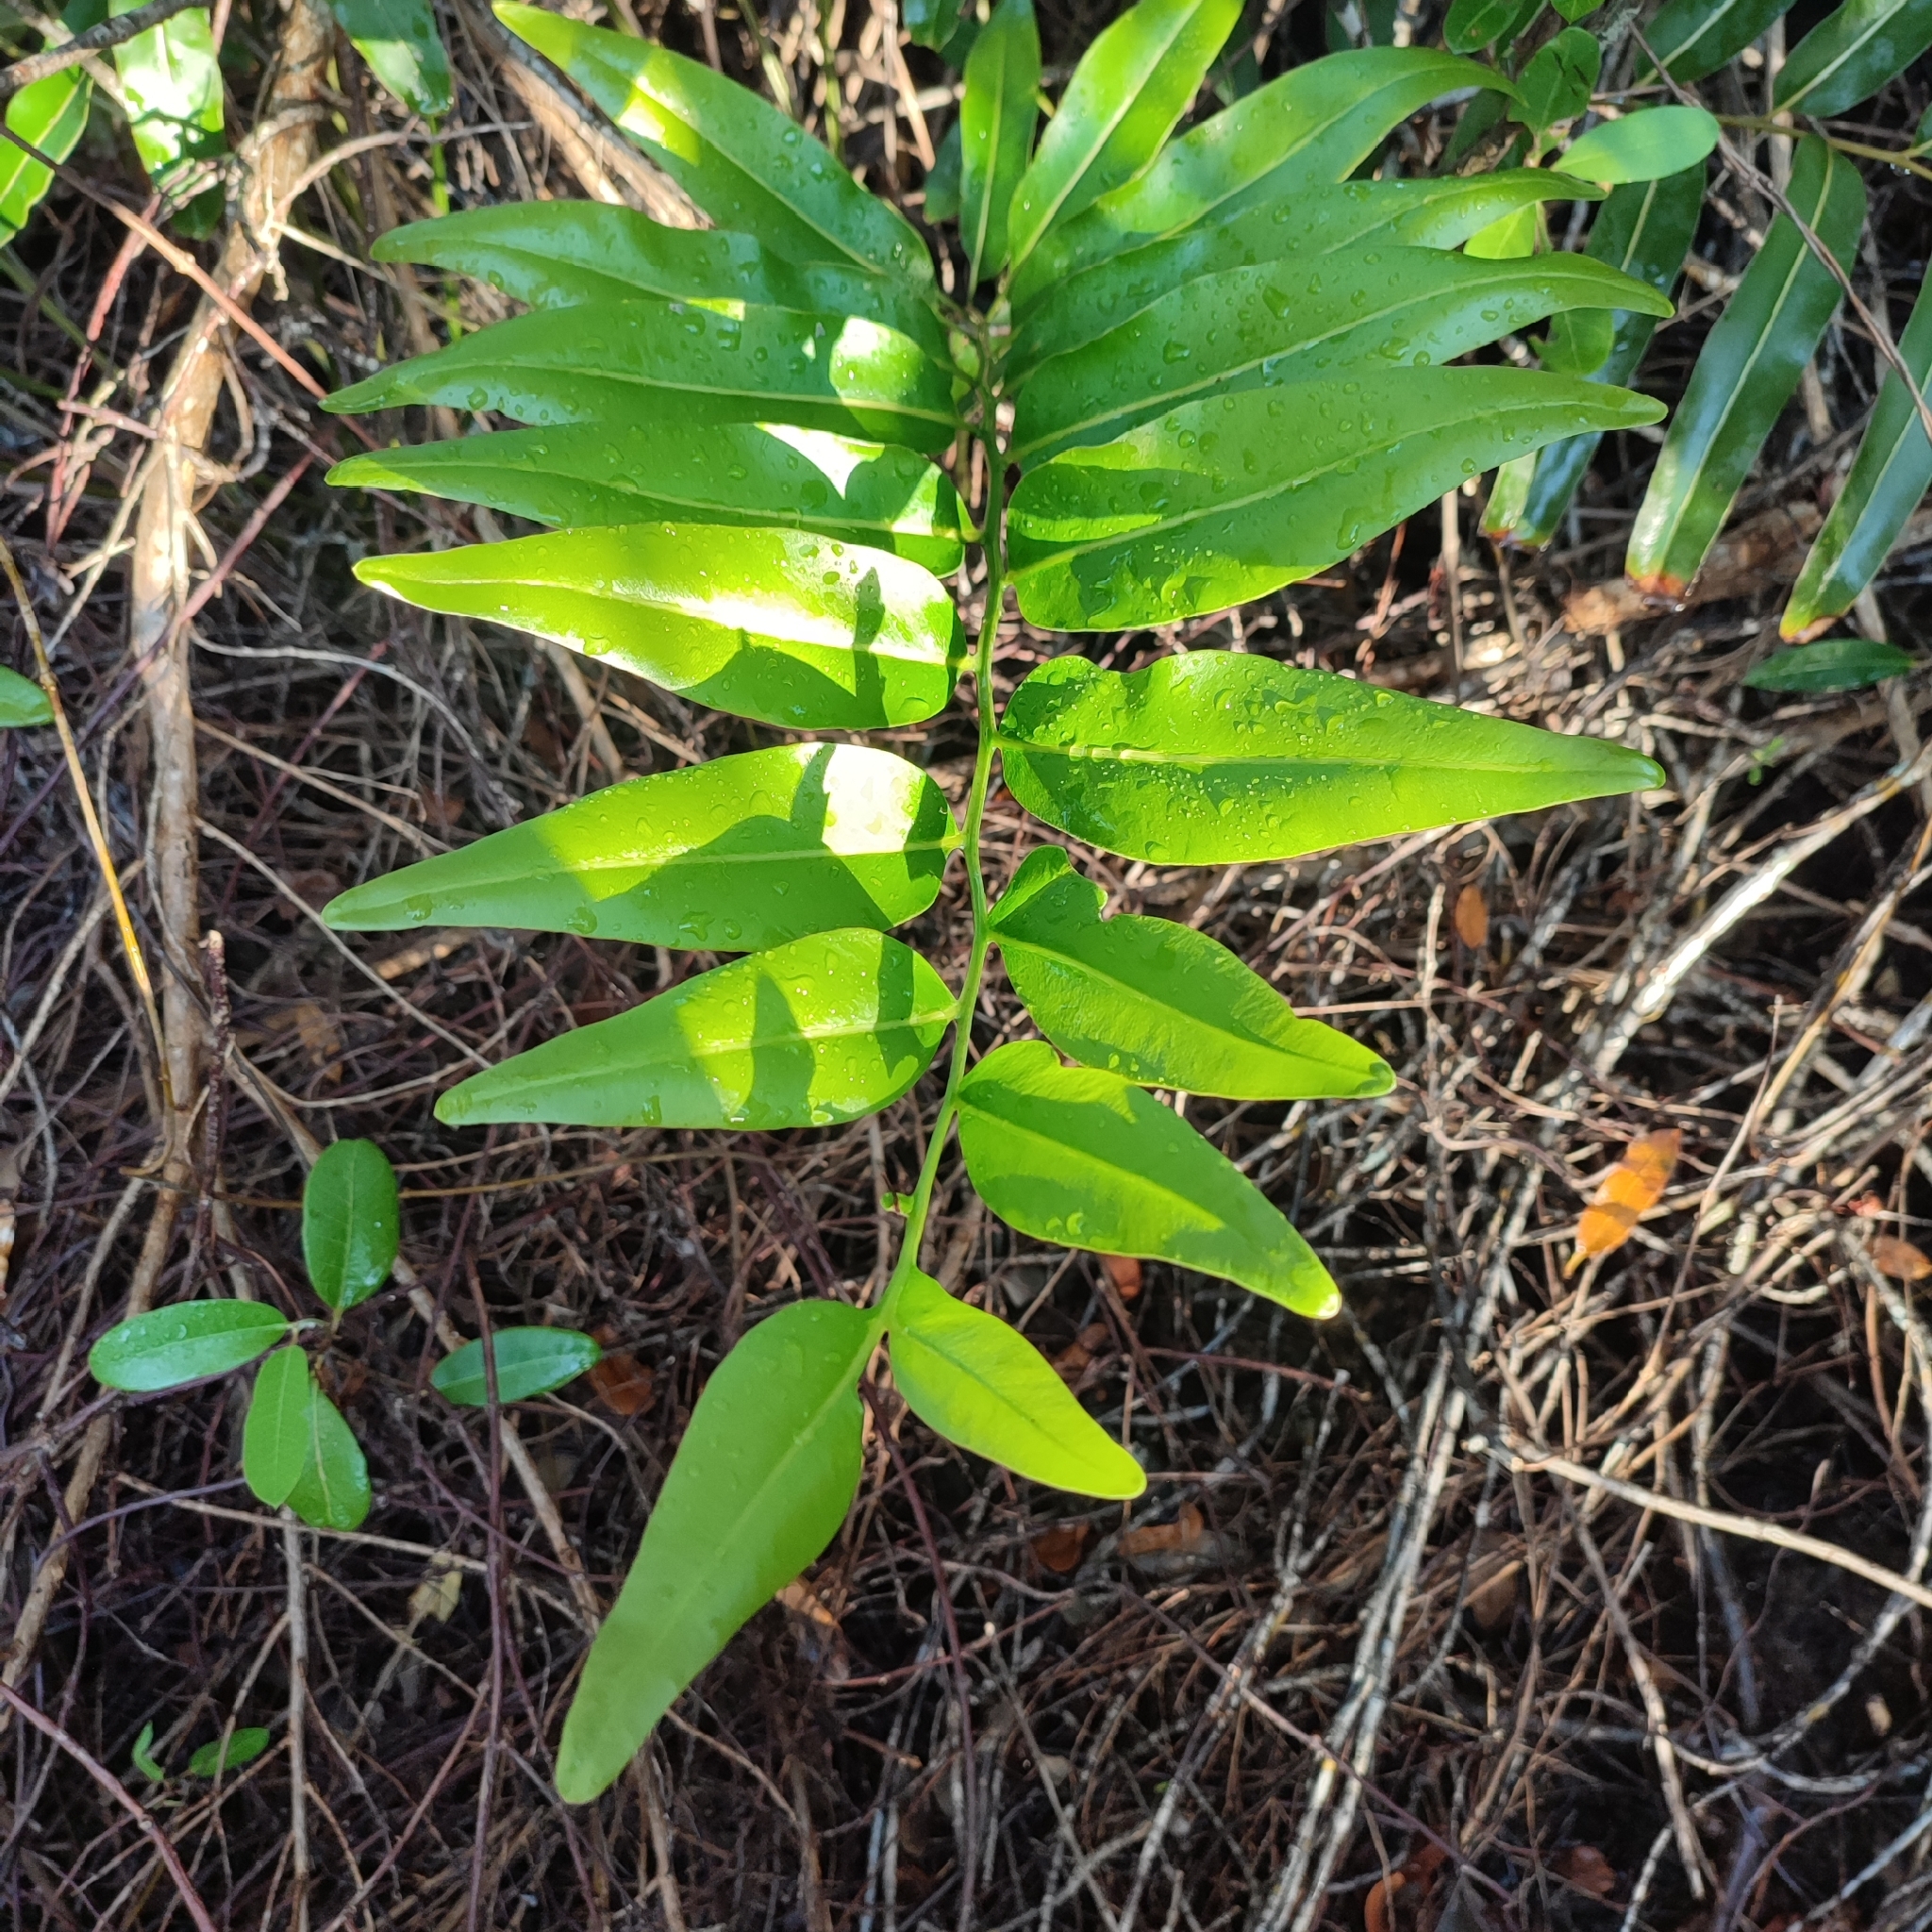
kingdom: Plantae
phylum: Tracheophyta
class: Polypodiopsida
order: Polypodiales
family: Pteridaceae
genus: Acrostichum
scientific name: Acrostichum danaeifolium
